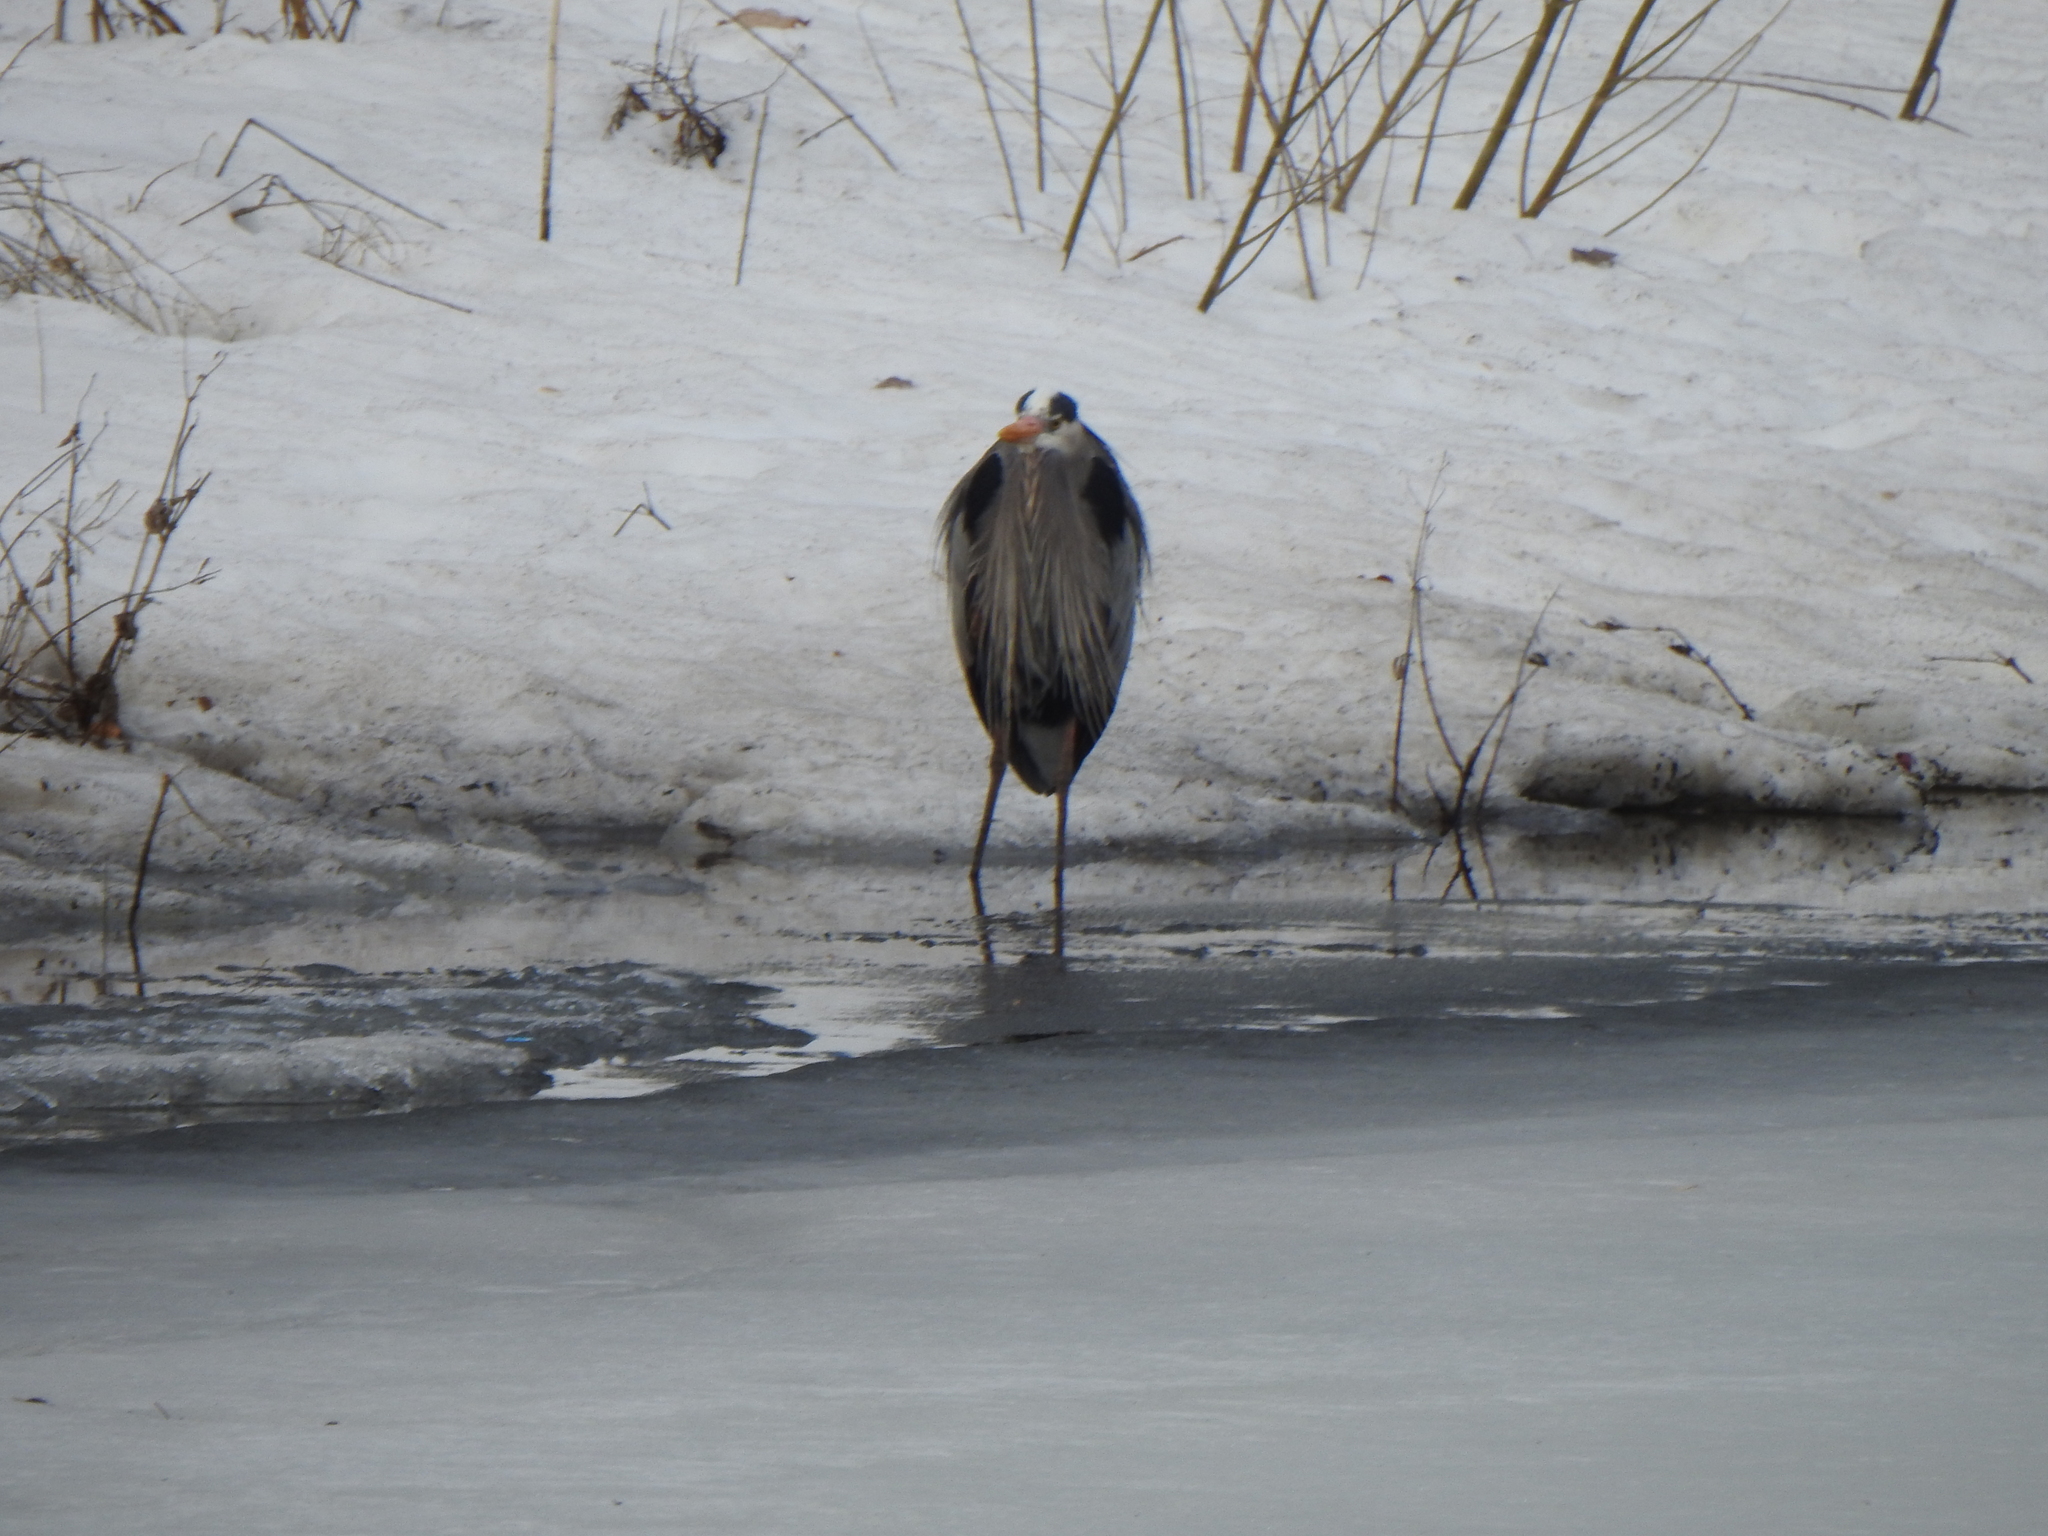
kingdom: Animalia
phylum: Chordata
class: Aves
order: Pelecaniformes
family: Ardeidae
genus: Ardea
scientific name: Ardea herodias
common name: Great blue heron
